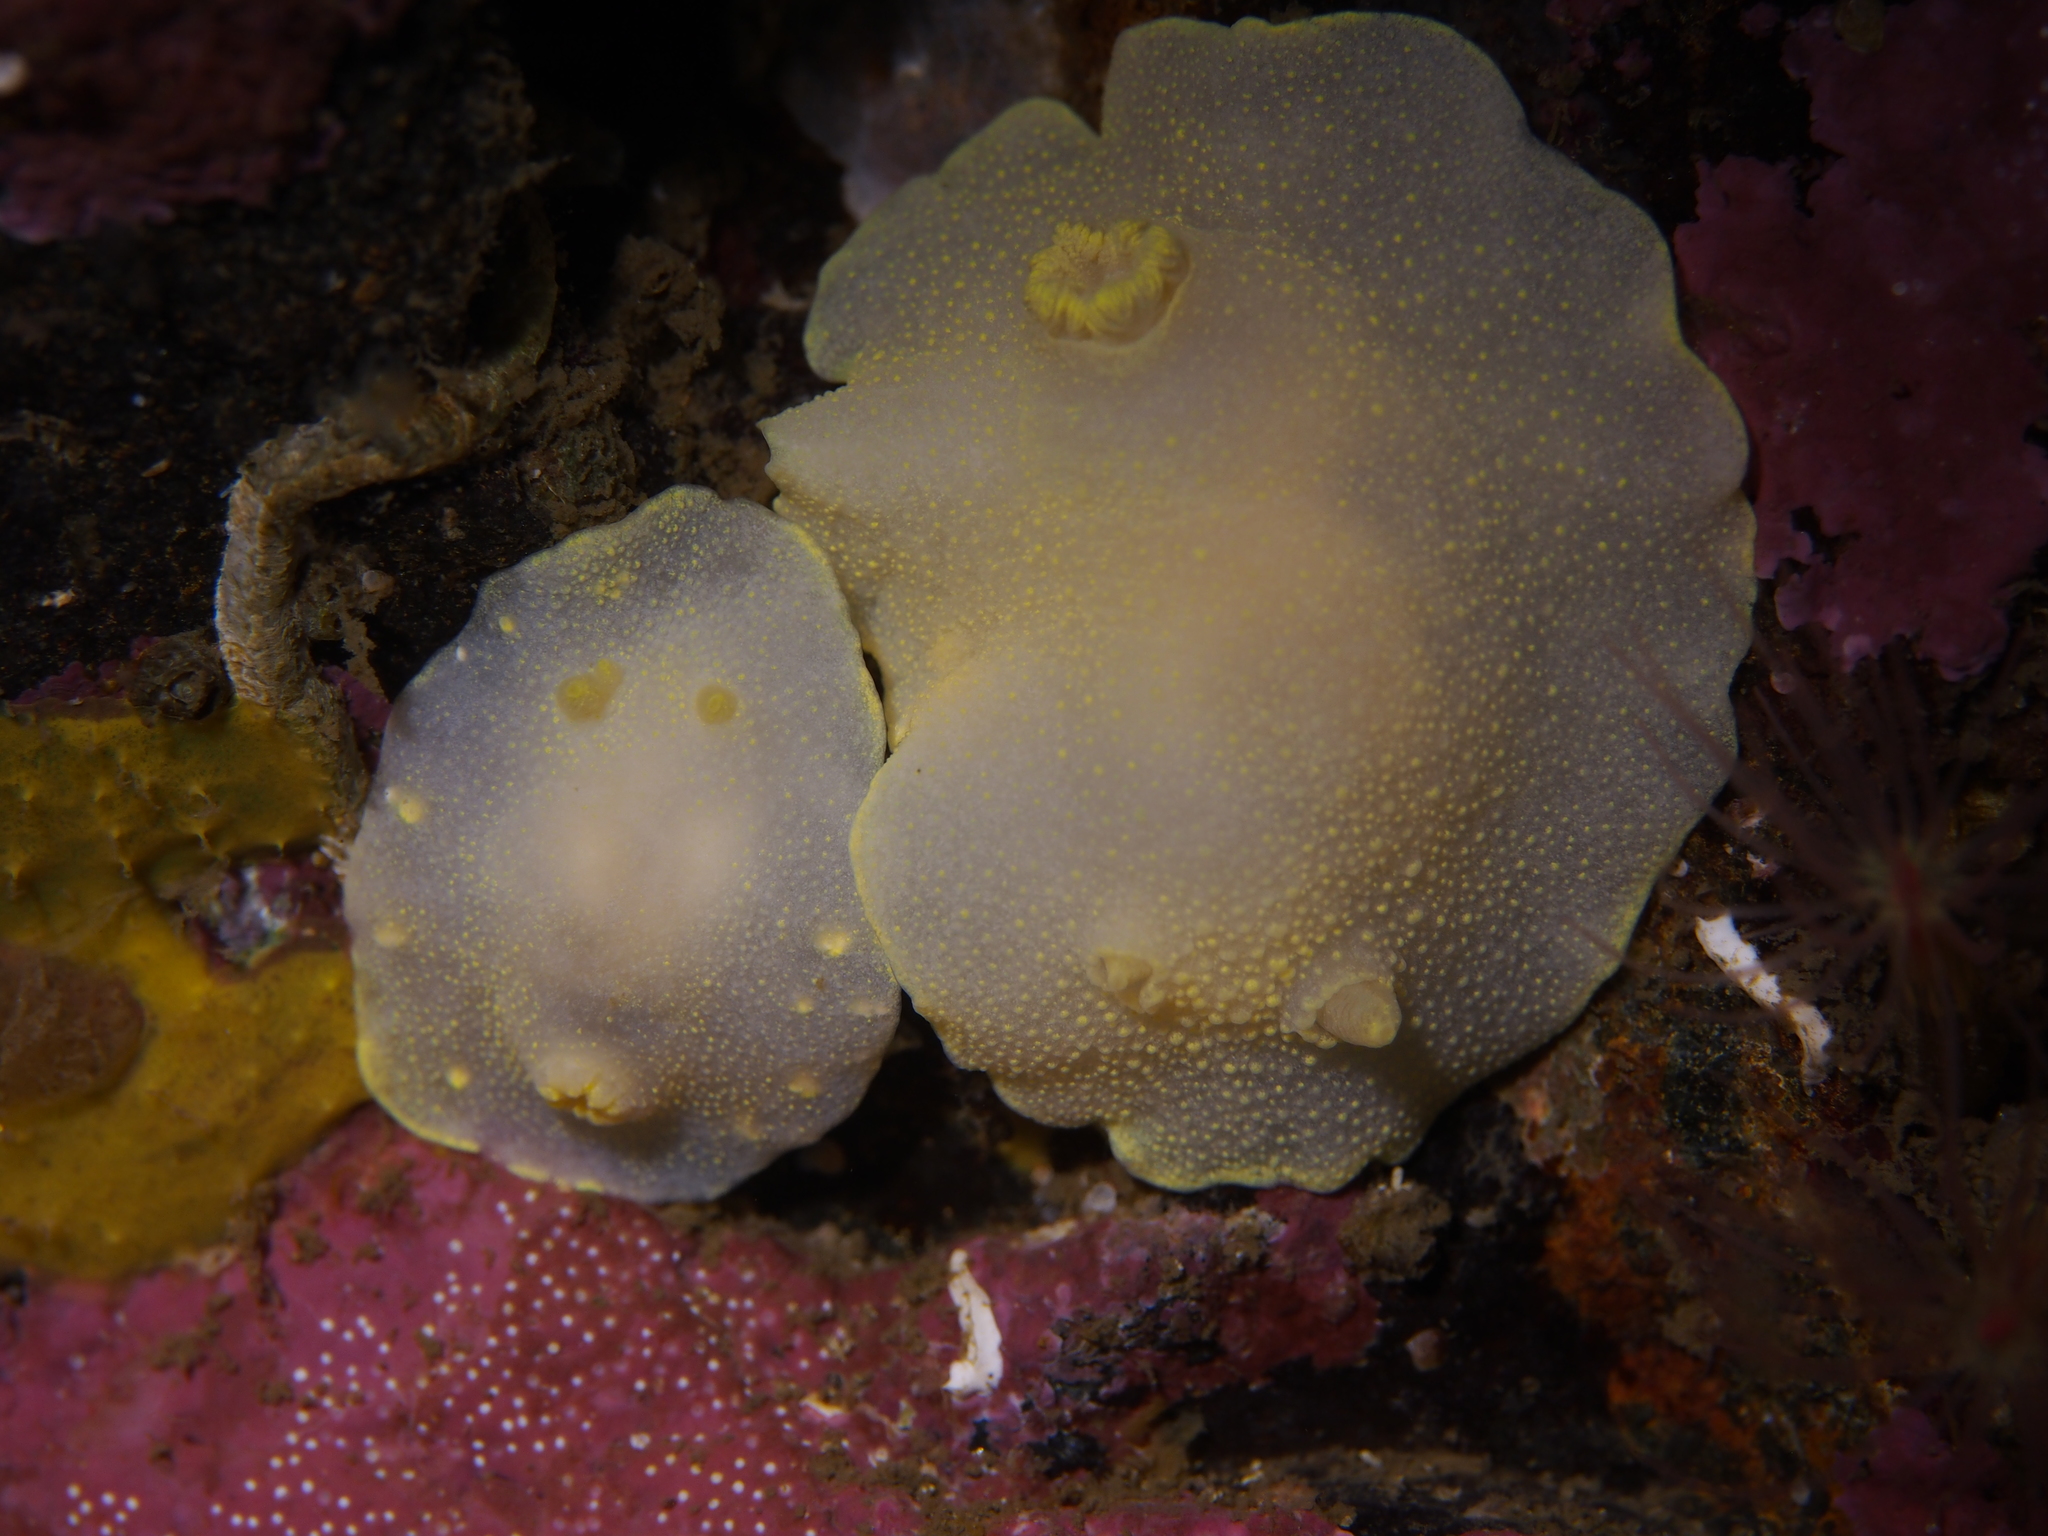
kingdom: Animalia
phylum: Mollusca
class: Gastropoda
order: Nudibranchia
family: Cadlinidae
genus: Cadlina
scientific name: Cadlina laevis
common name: White atlantic cadlina
